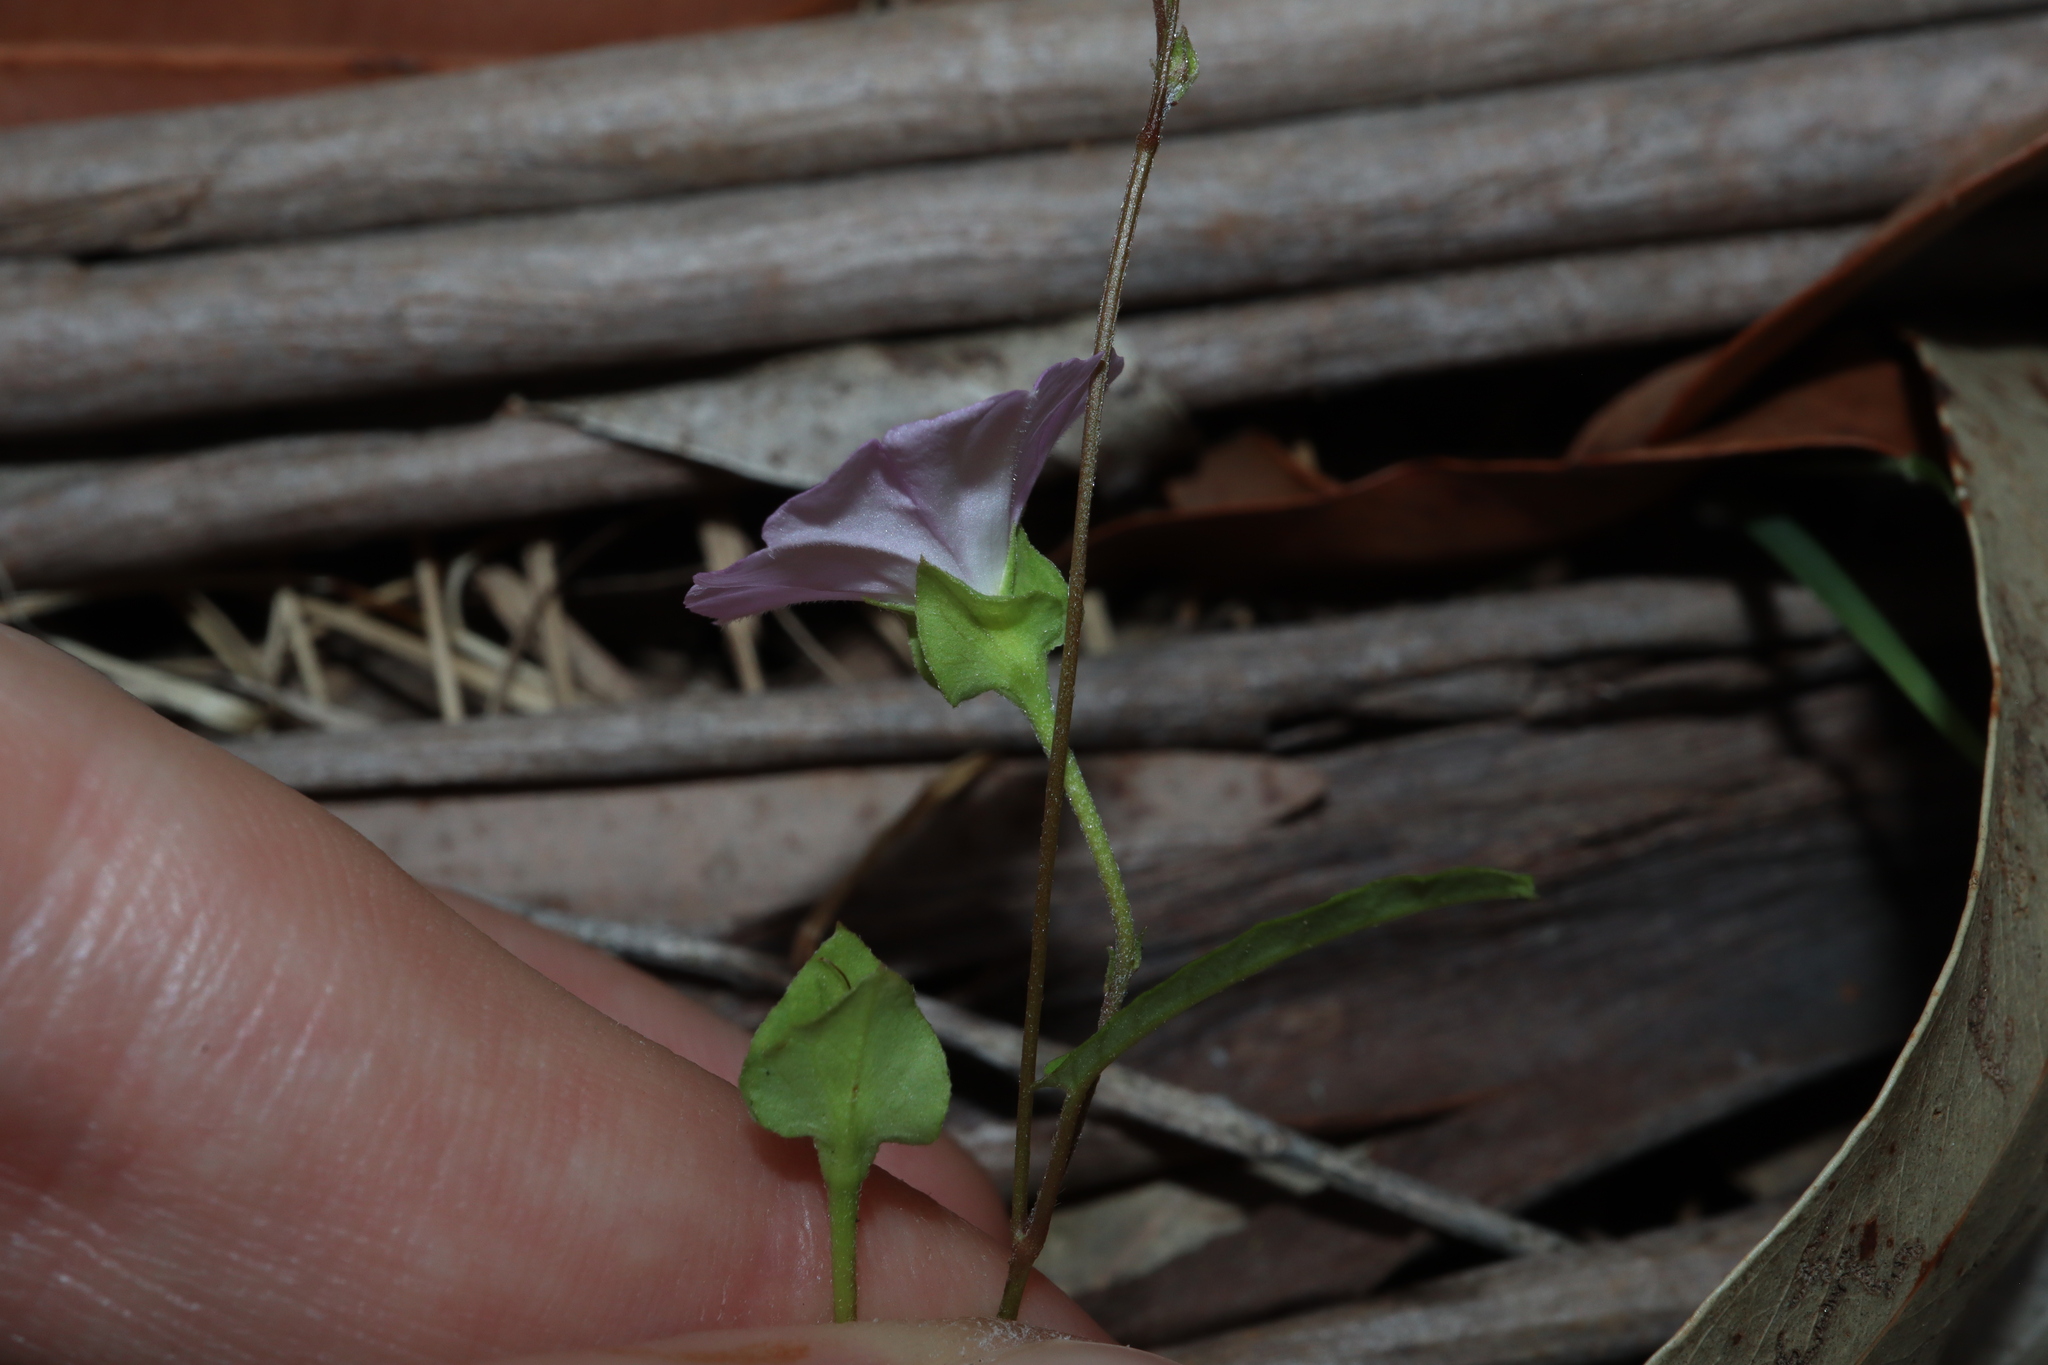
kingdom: Plantae
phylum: Tracheophyta
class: Magnoliopsida
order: Solanales
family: Convolvulaceae
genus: Polymeria
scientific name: Polymeria calycina
